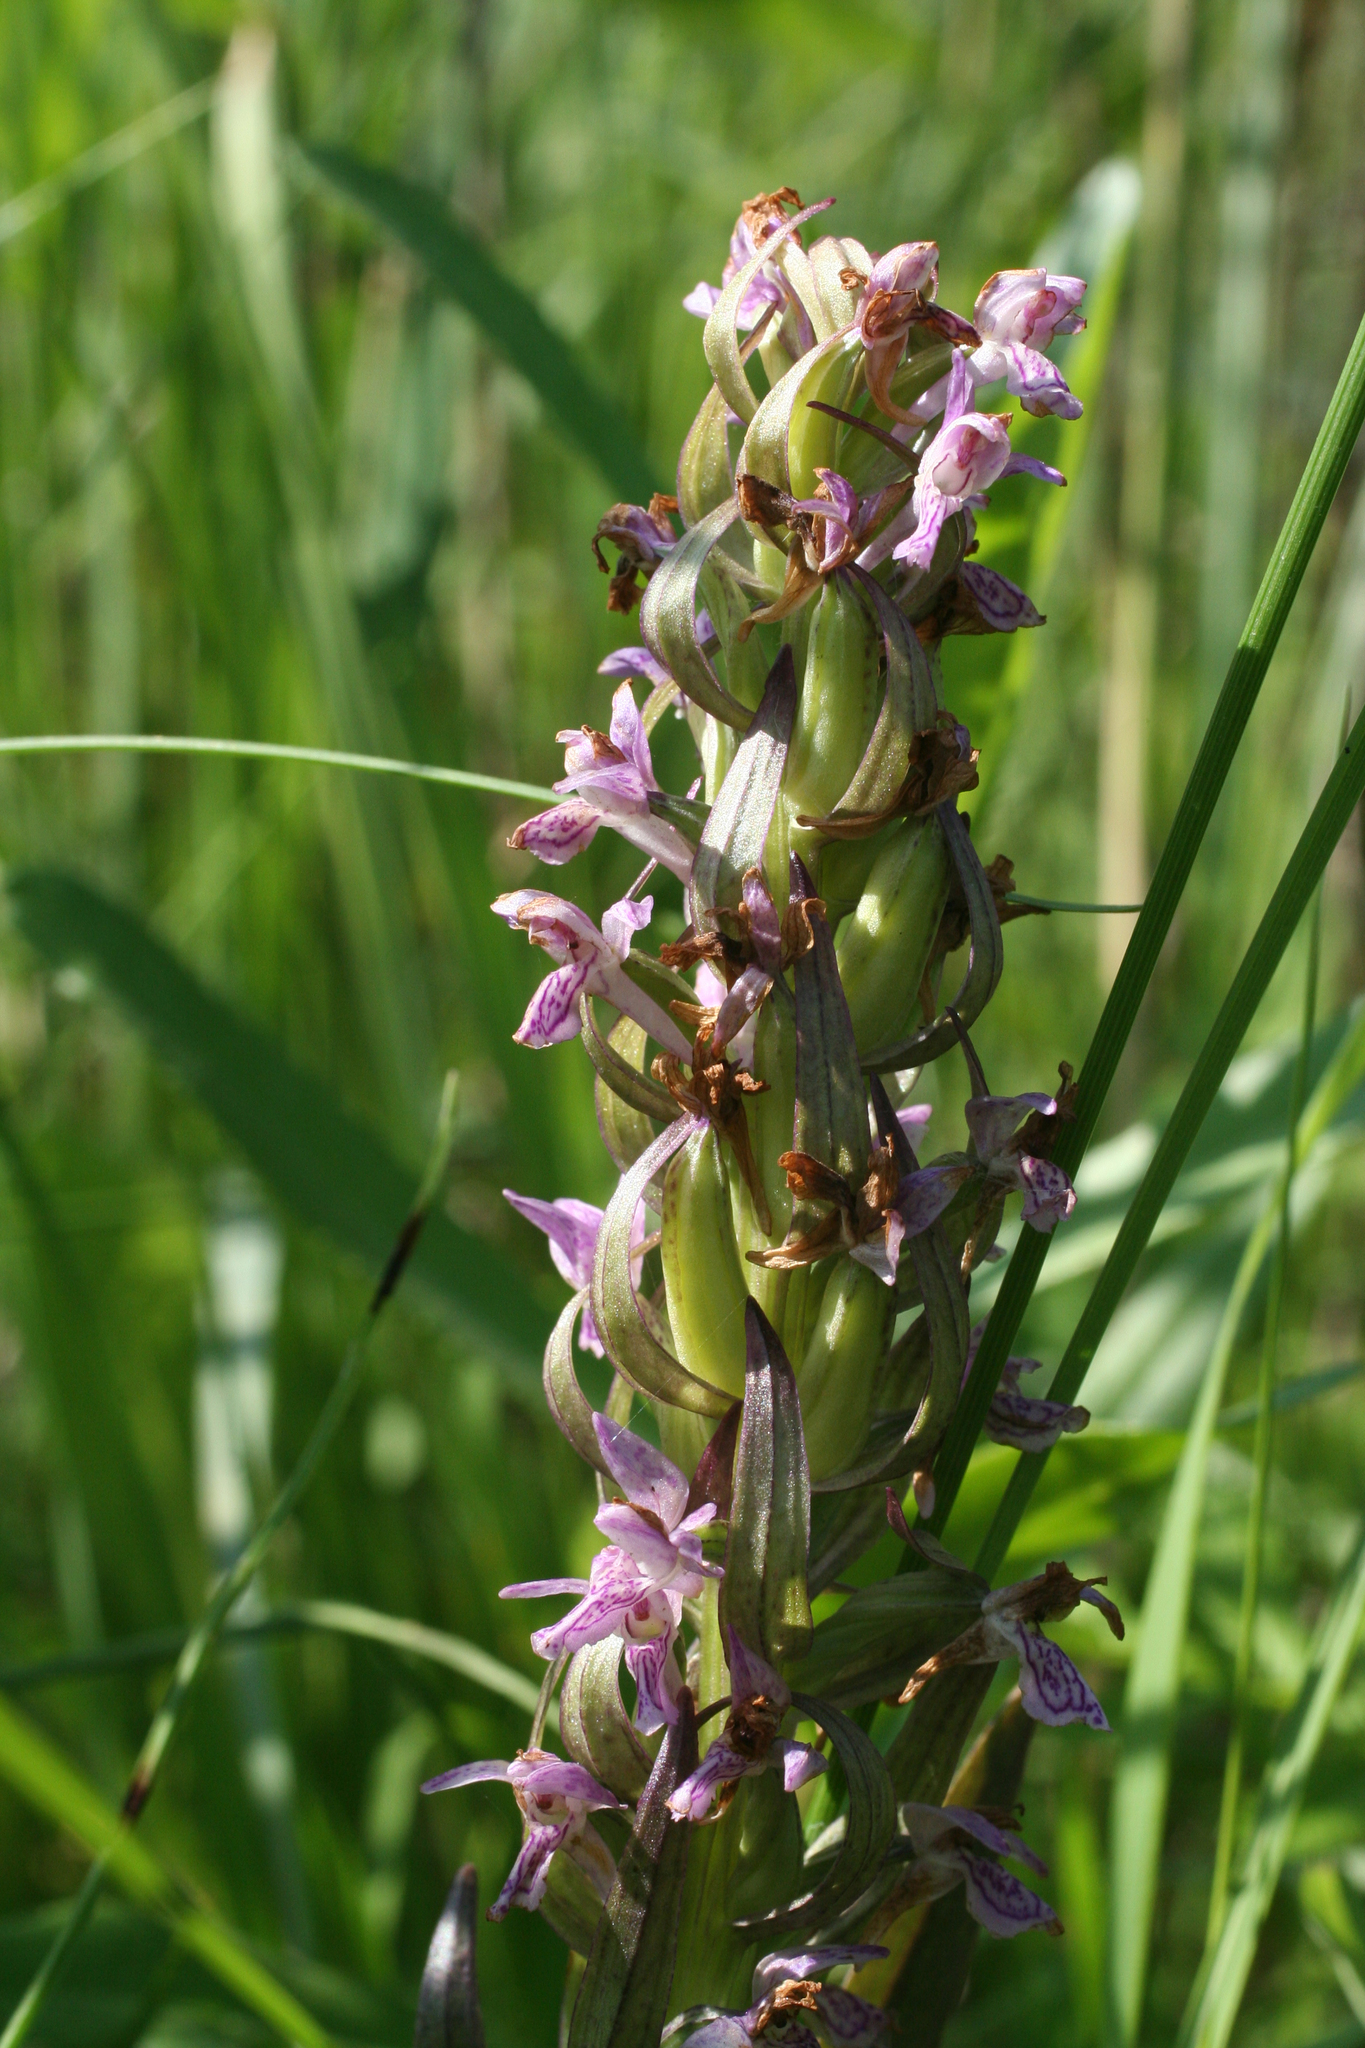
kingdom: Plantae
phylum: Tracheophyta
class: Liliopsida
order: Asparagales
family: Orchidaceae
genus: Dactylorhiza
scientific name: Dactylorhiza incarnata
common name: Early marsh-orchid
